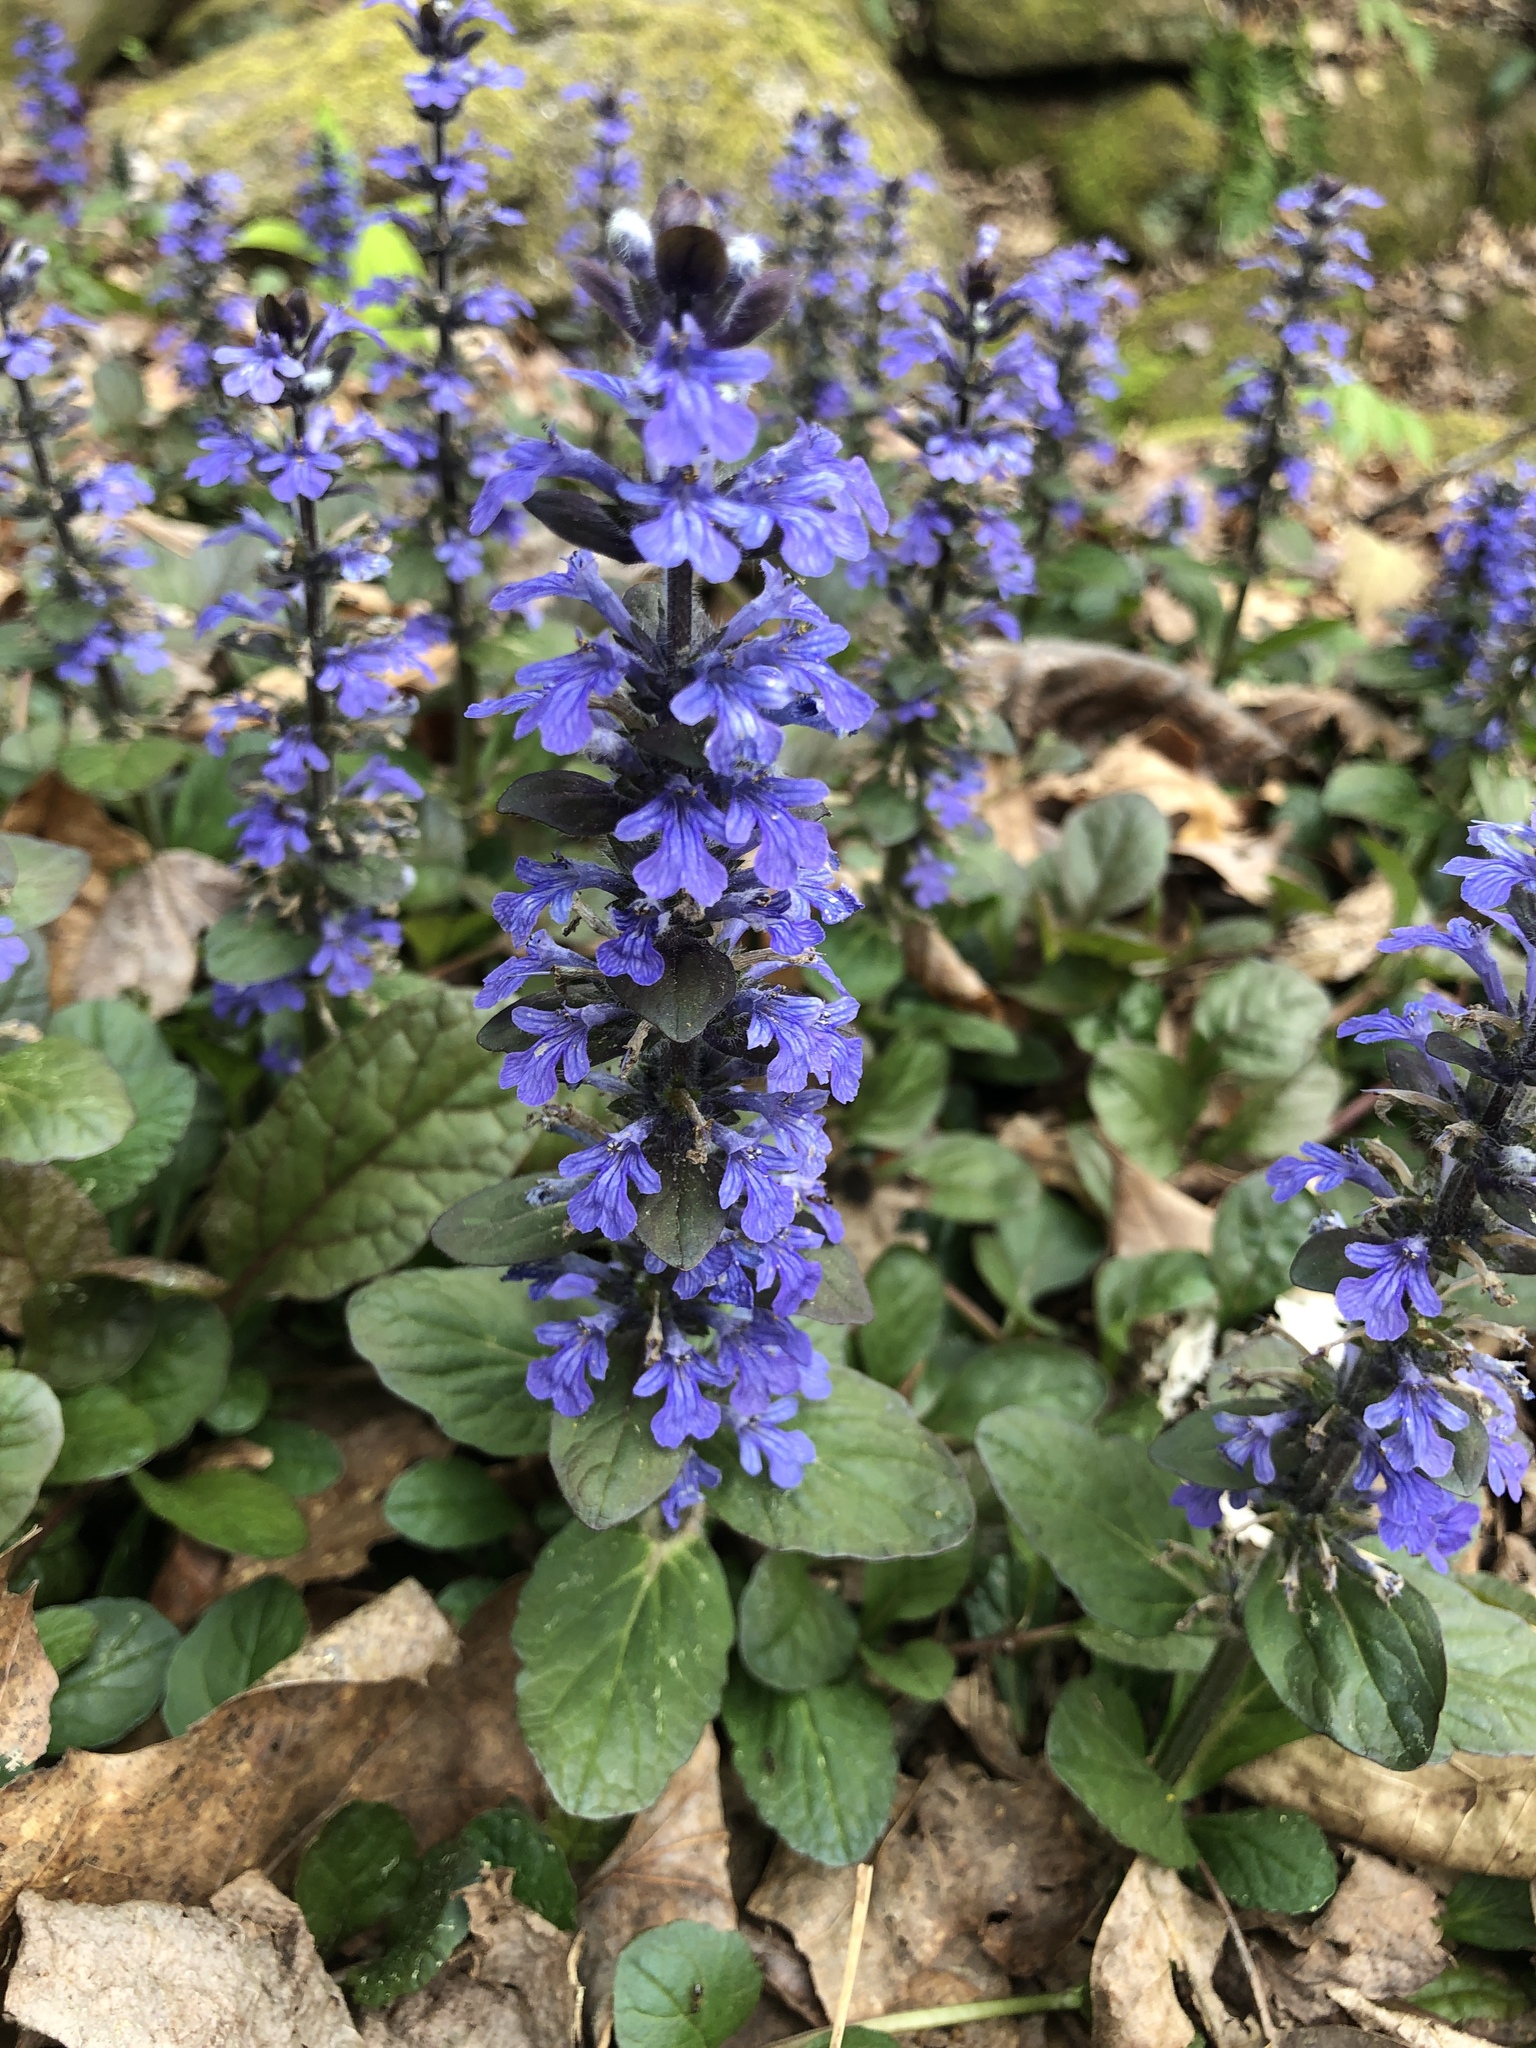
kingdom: Plantae
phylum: Tracheophyta
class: Magnoliopsida
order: Lamiales
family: Lamiaceae
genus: Ajuga
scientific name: Ajuga reptans
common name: Bugle
